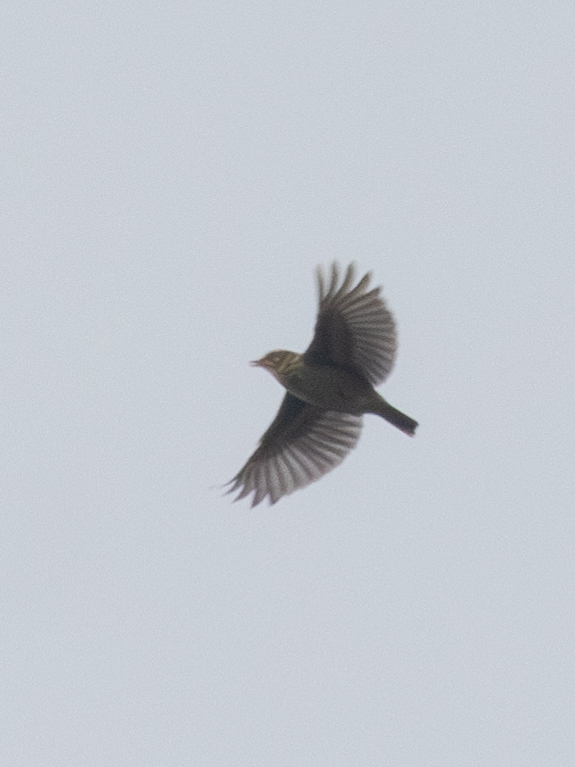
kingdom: Animalia
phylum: Chordata
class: Aves
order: Passeriformes
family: Alaudidae
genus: Lullula
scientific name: Lullula arborea
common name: Woodlark
